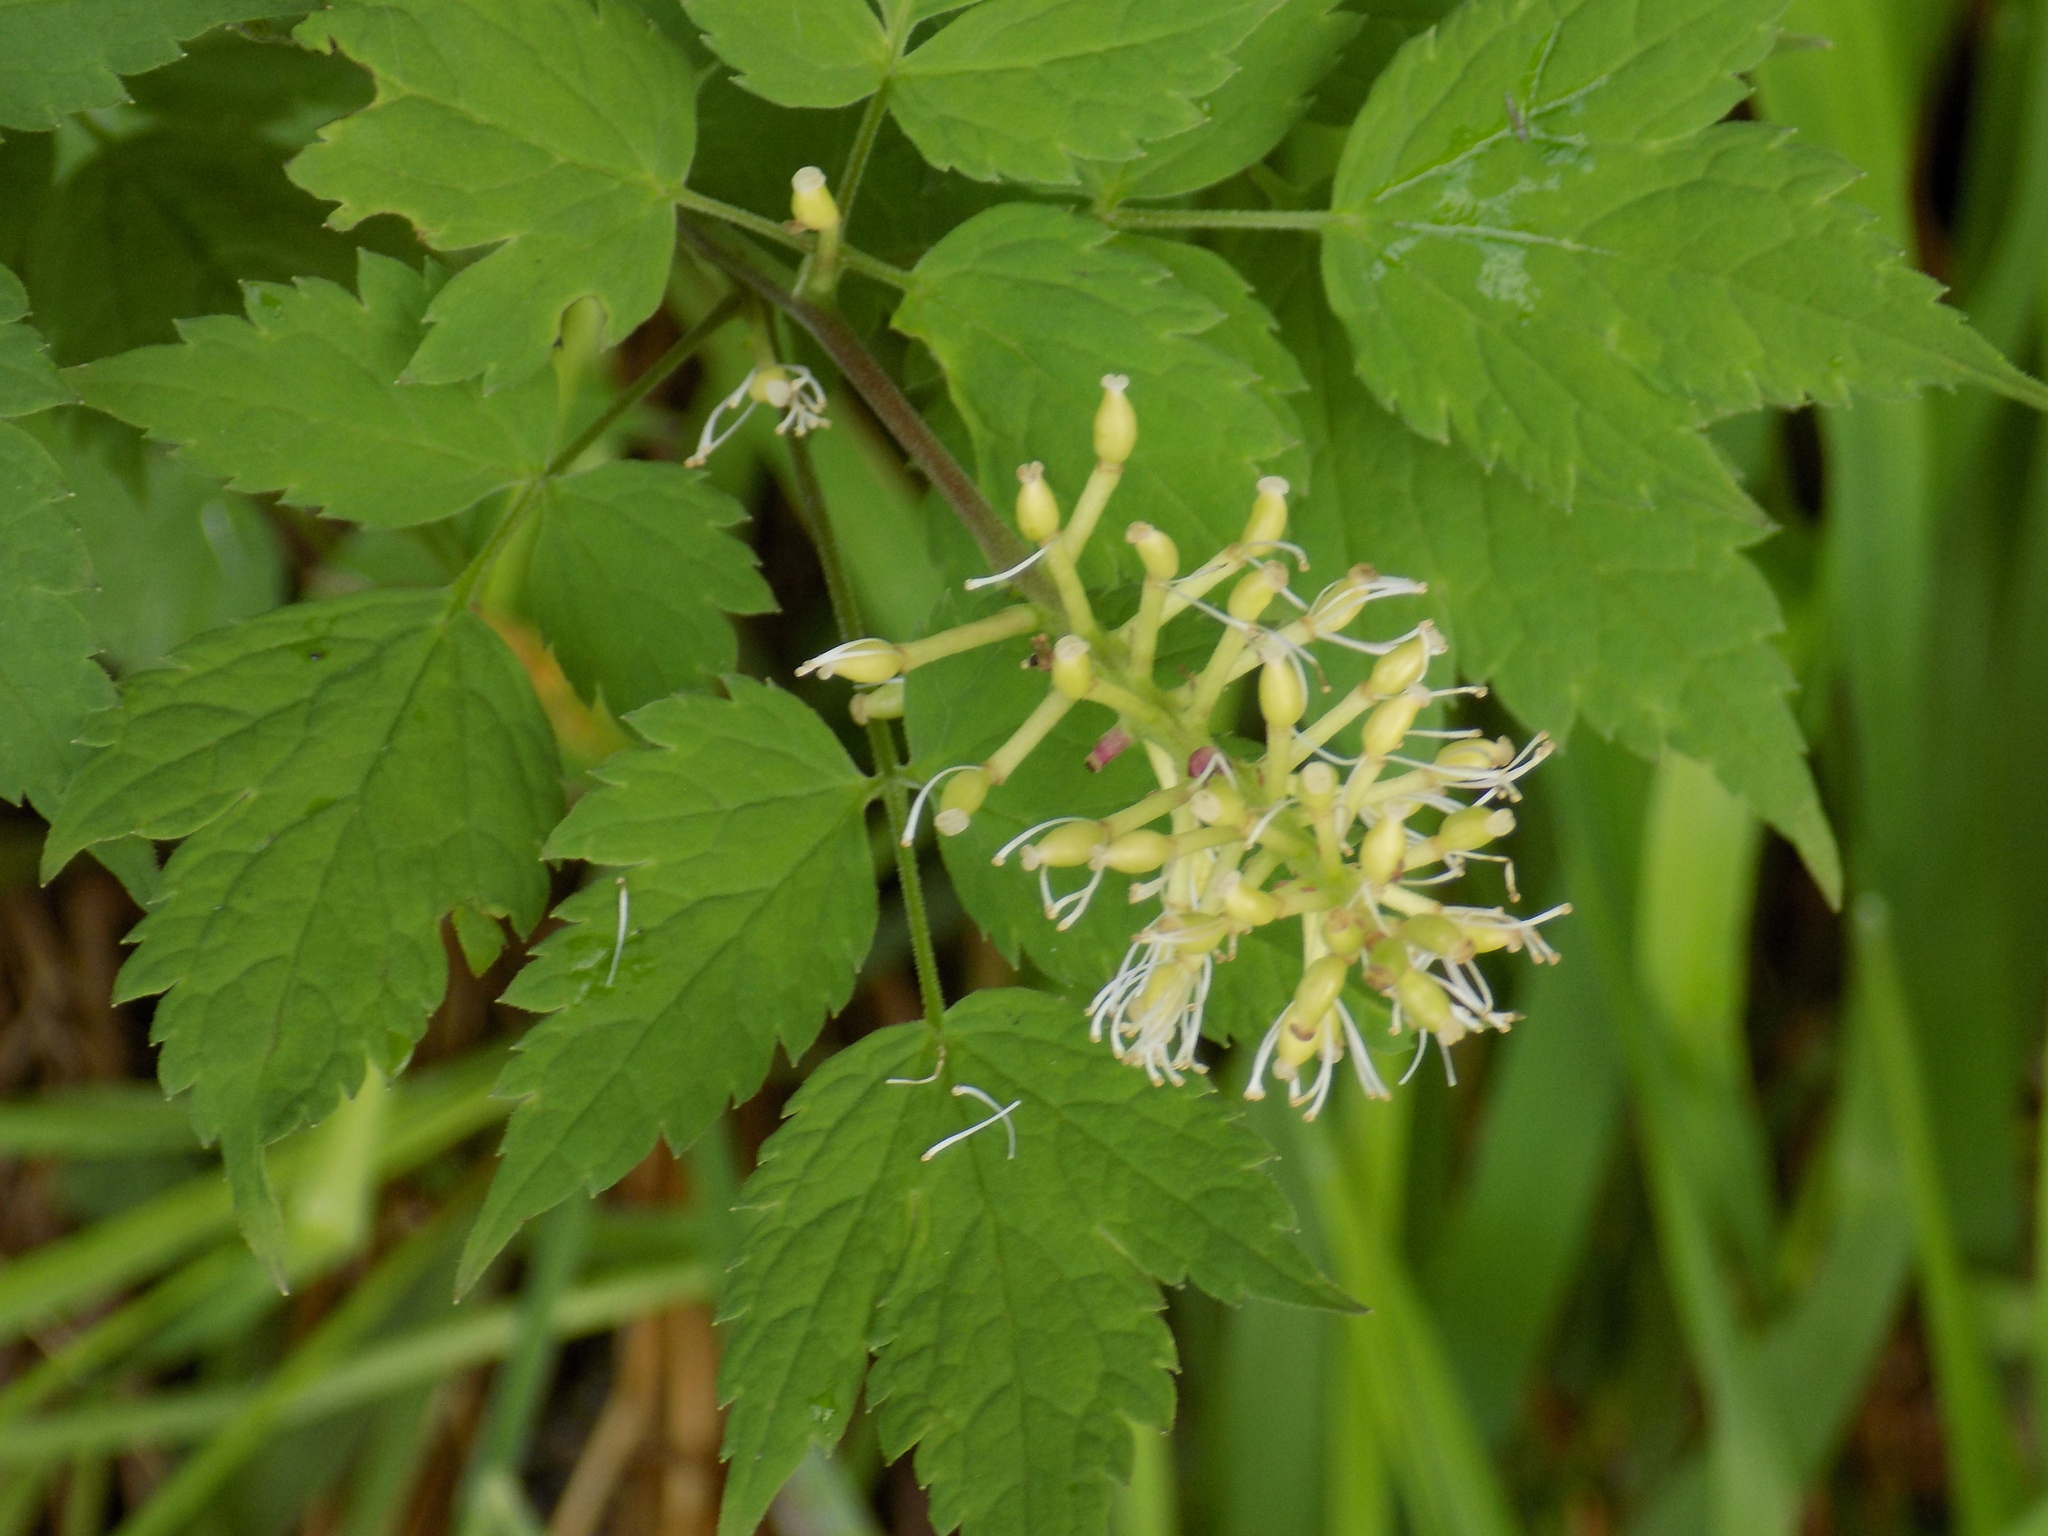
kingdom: Plantae
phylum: Tracheophyta
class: Magnoliopsida
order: Ranunculales
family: Ranunculaceae
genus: Actaea
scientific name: Actaea spicata
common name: Baneberry
